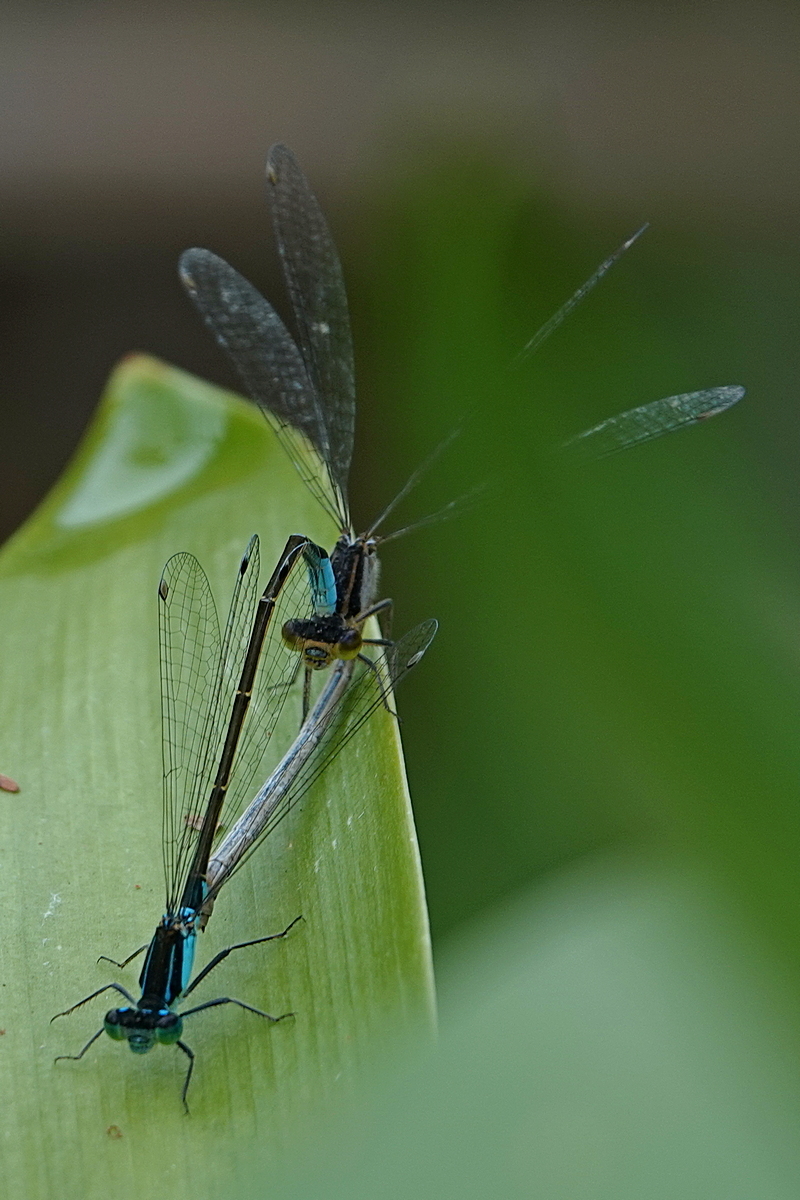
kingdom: Animalia
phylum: Arthropoda
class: Insecta
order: Odonata
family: Coenagrionidae
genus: Ischnura
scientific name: Ischnura heterosticta
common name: Common bluetail
